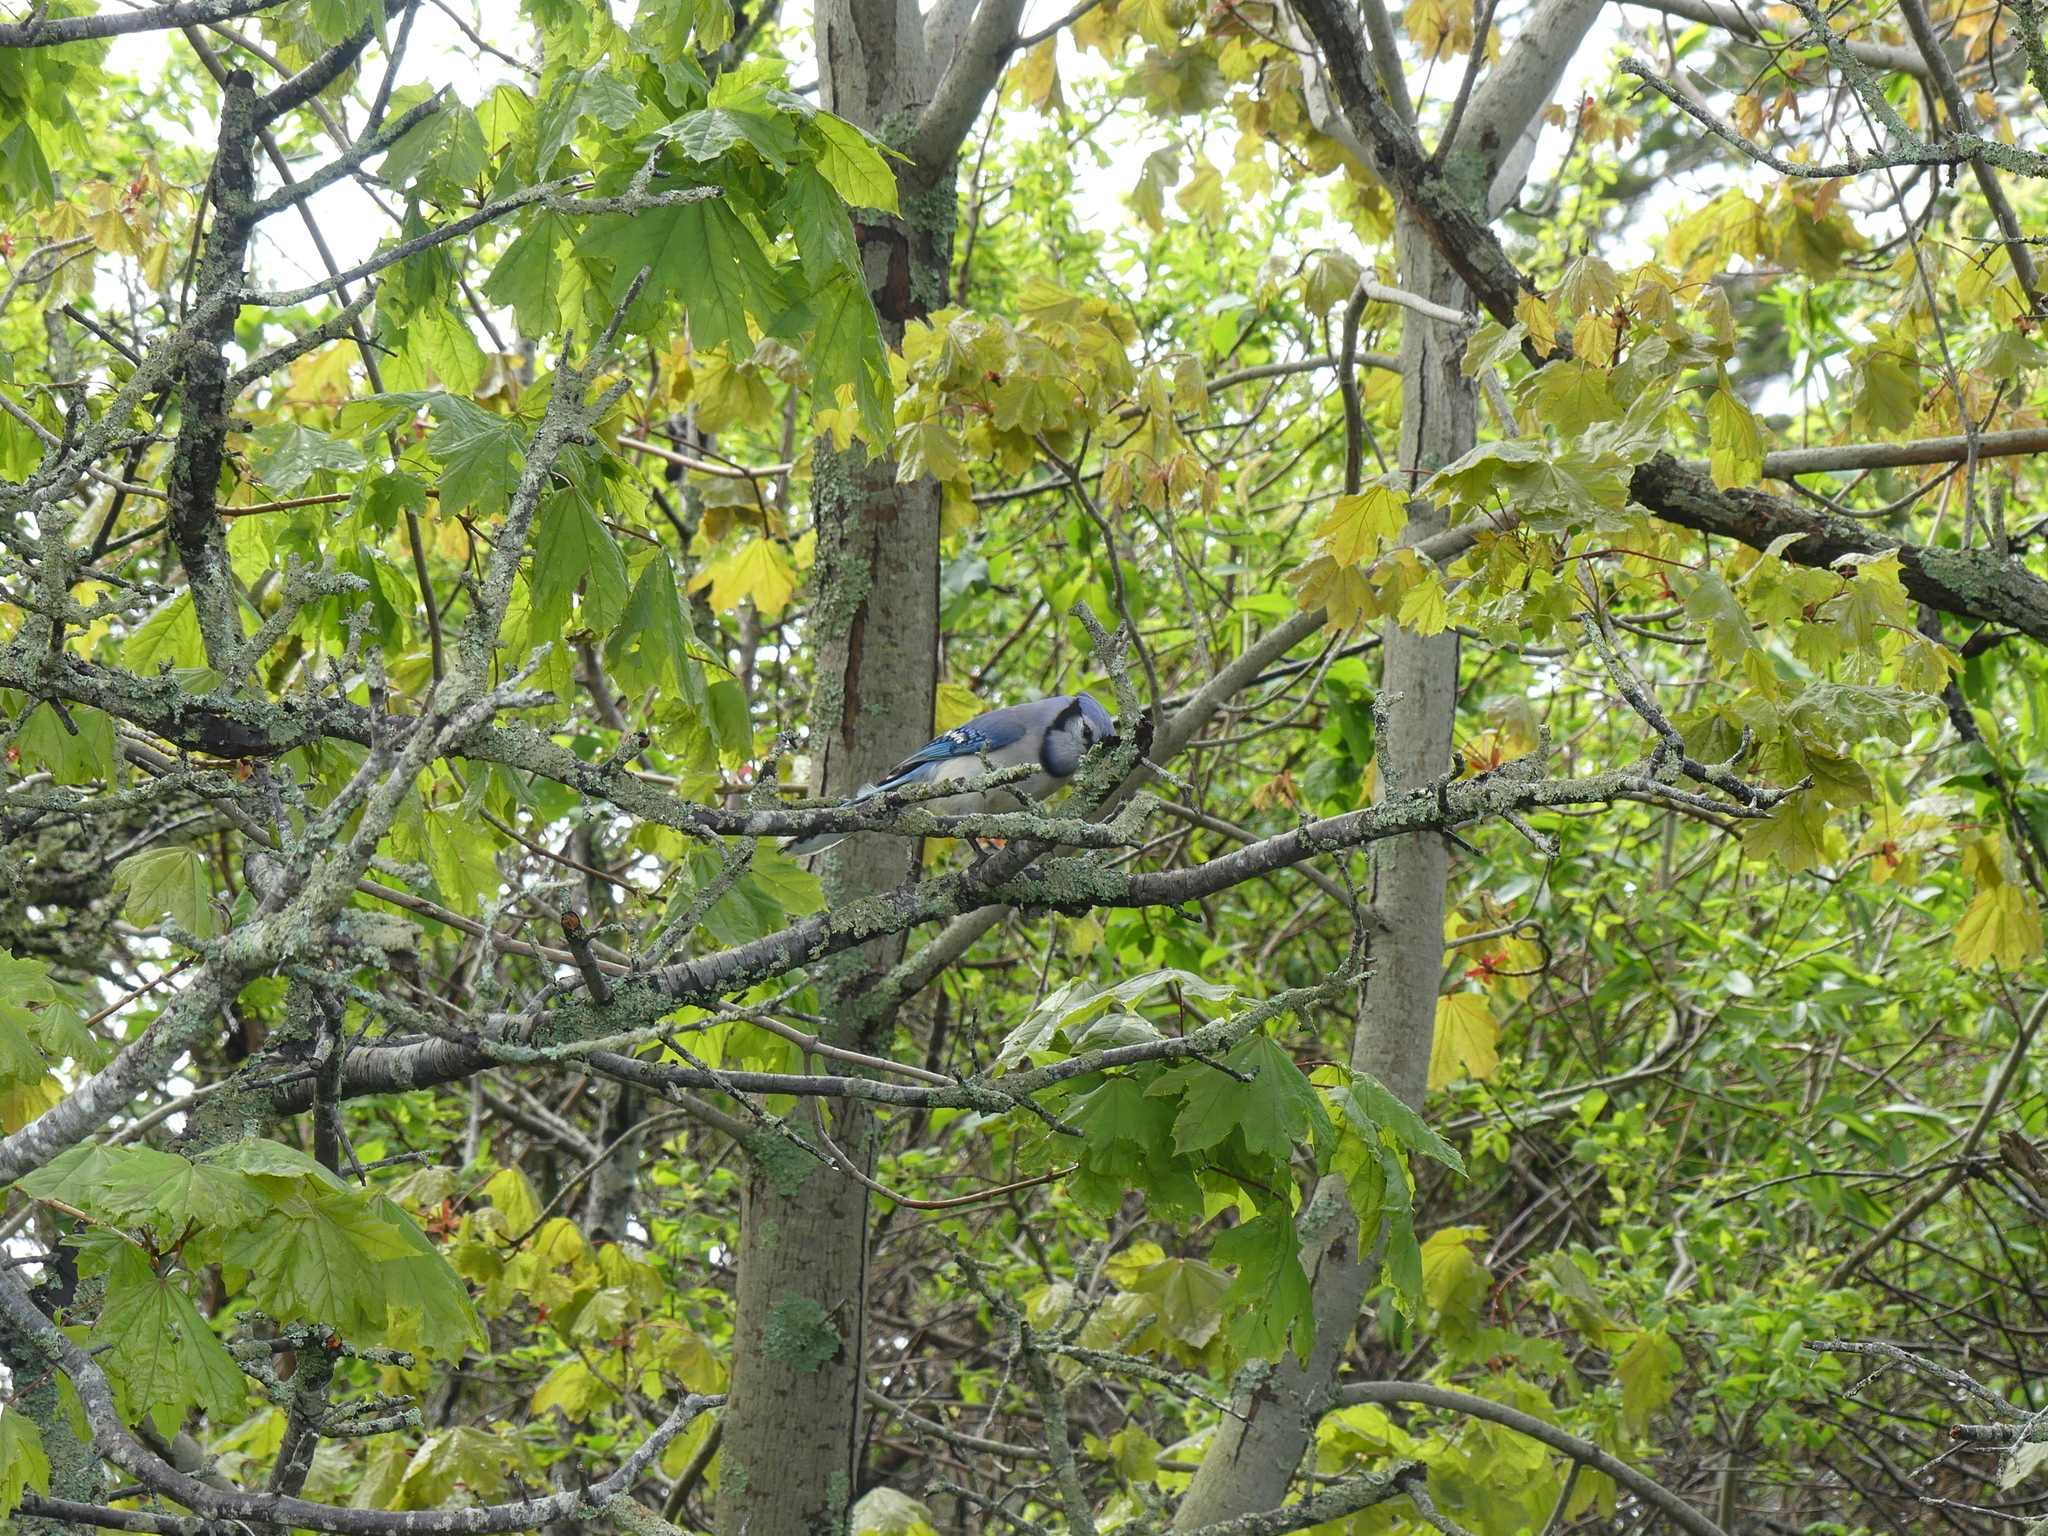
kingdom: Animalia
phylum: Chordata
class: Aves
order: Passeriformes
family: Corvidae
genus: Cyanocitta
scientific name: Cyanocitta cristata
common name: Blue jay
